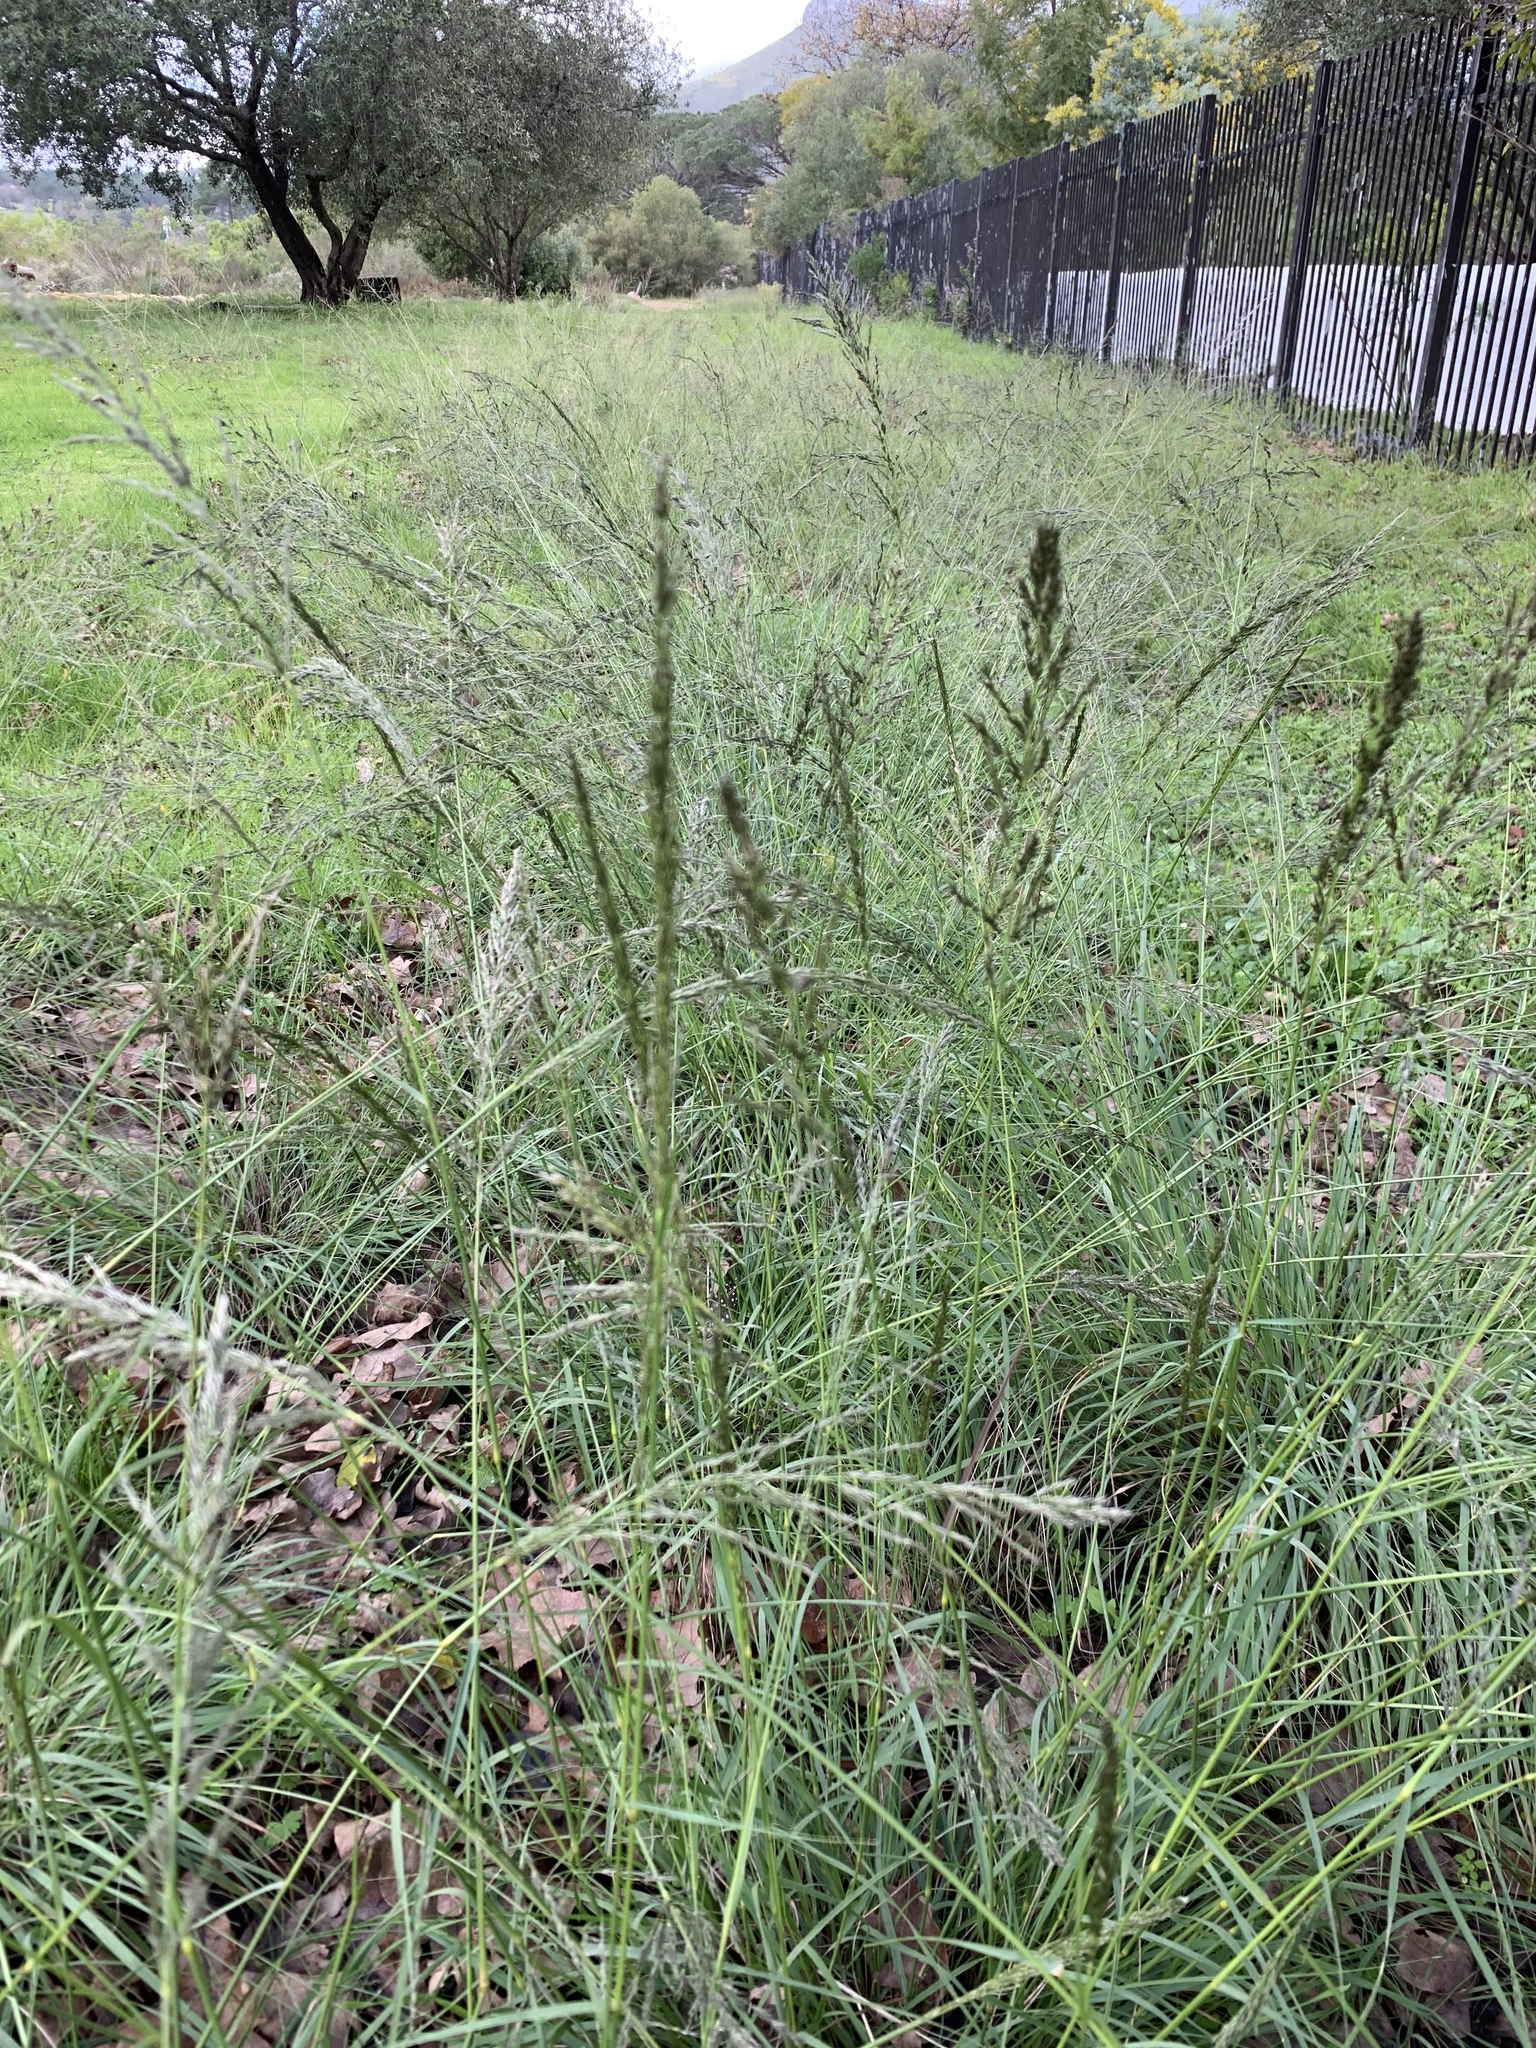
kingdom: Plantae
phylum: Tracheophyta
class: Liliopsida
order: Poales
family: Poaceae
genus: Eragrostis
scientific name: Eragrostis curvula
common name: African love-grass
